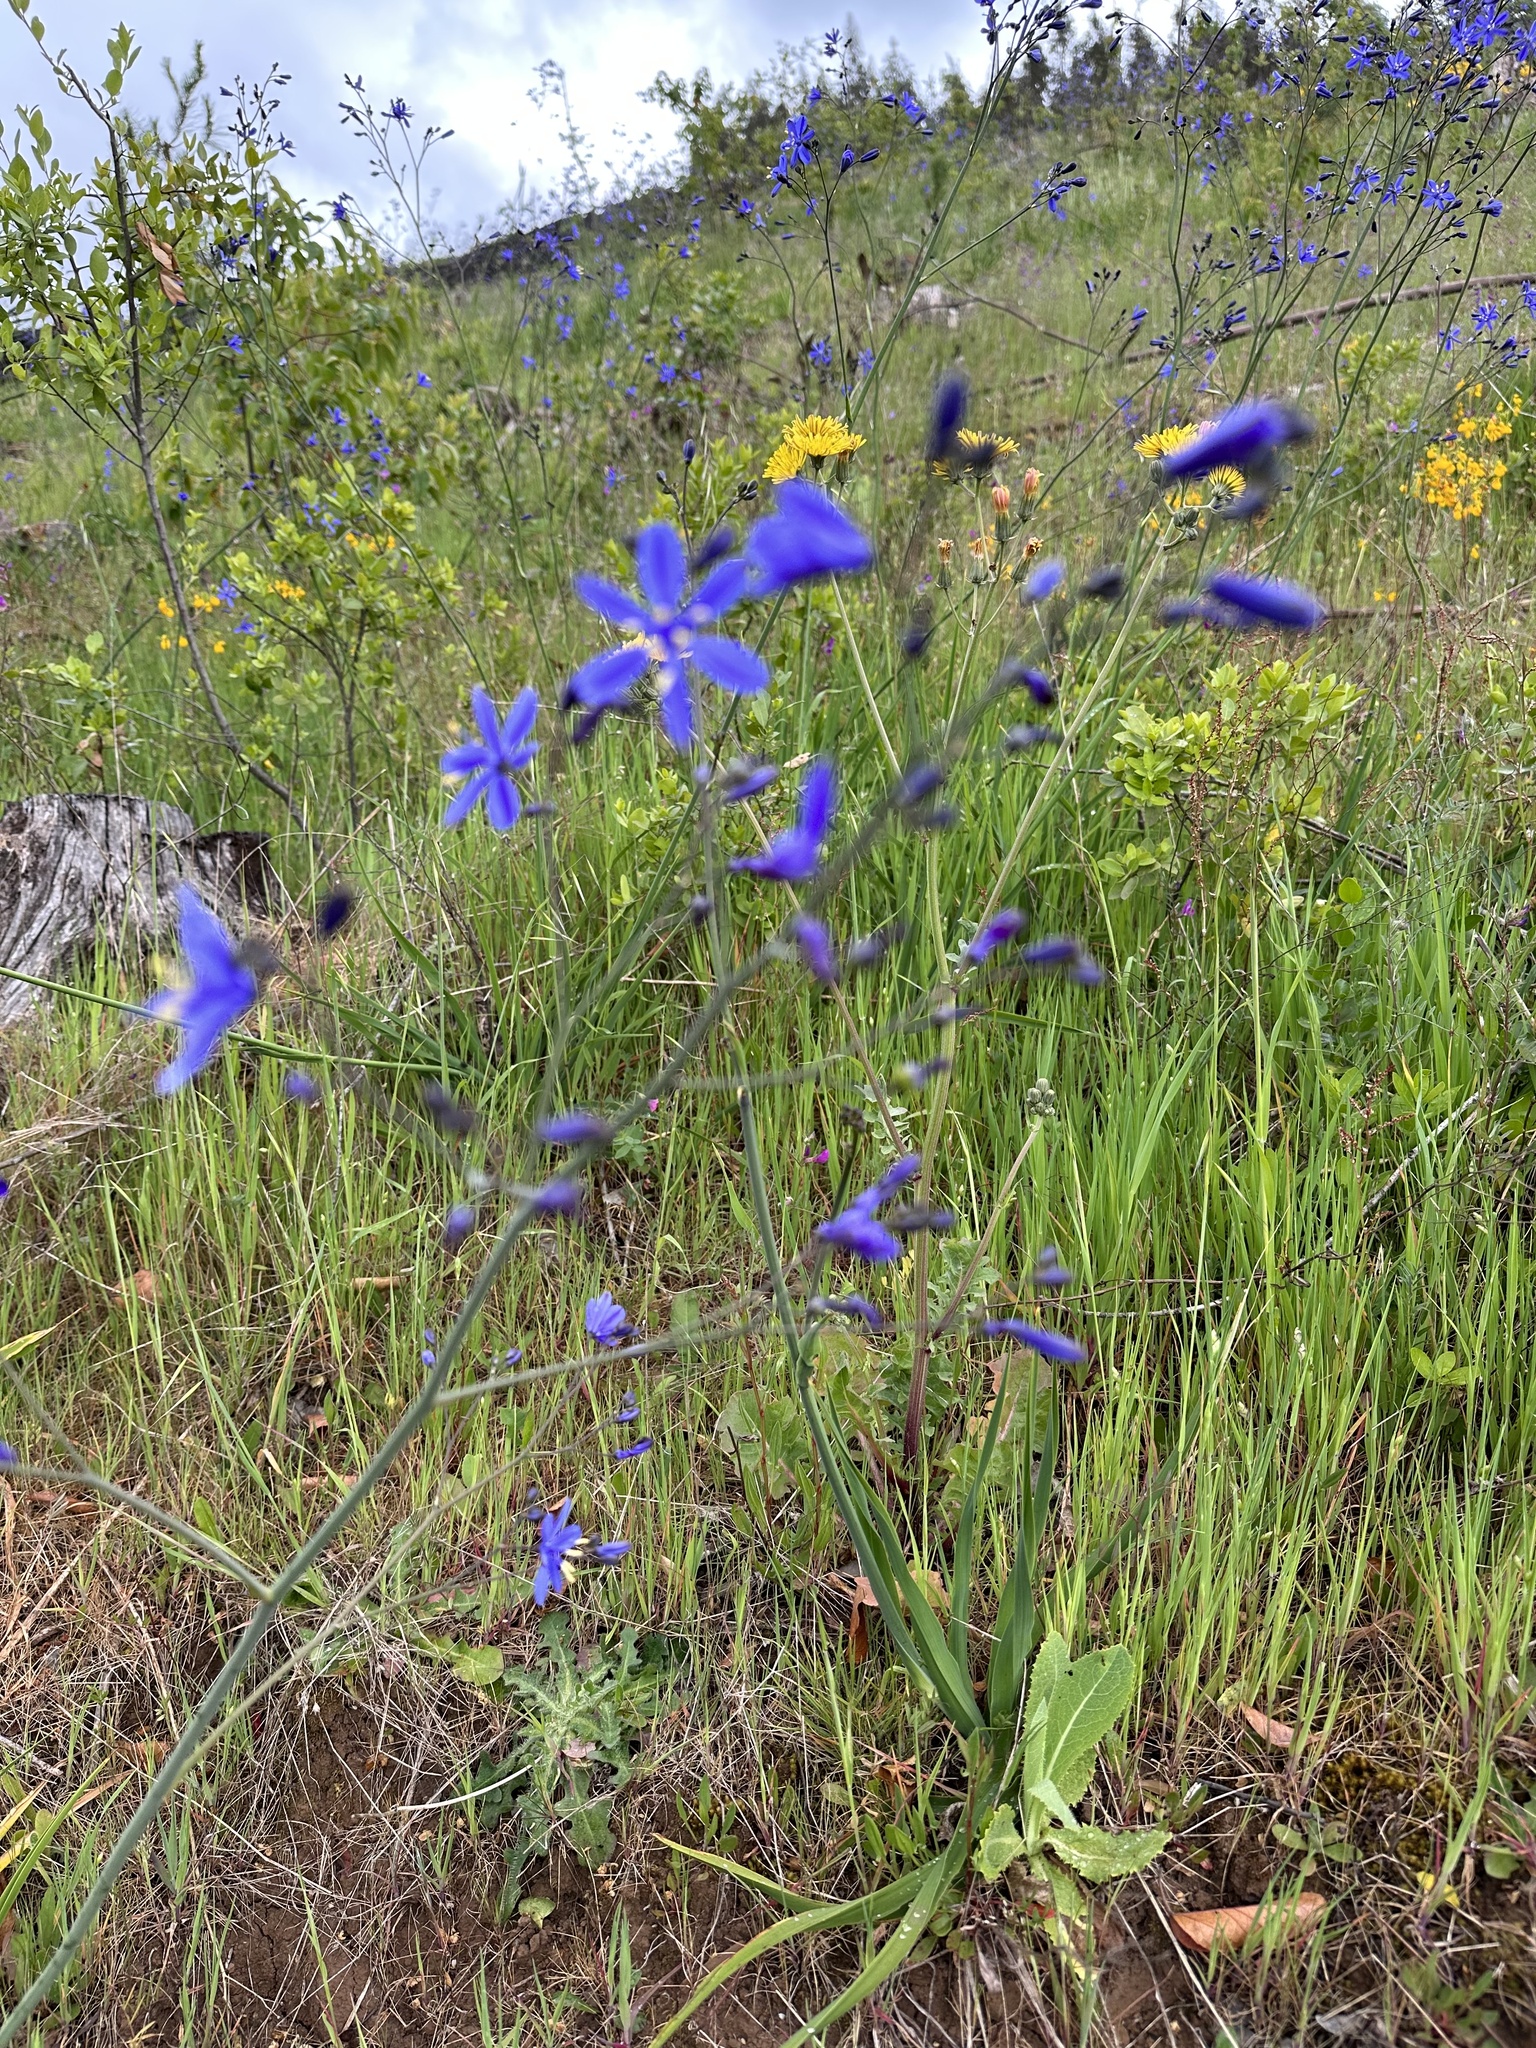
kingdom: Plantae
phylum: Tracheophyta
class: Liliopsida
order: Asparagales
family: Asphodelaceae
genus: Pasithea
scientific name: Pasithea caerulea
